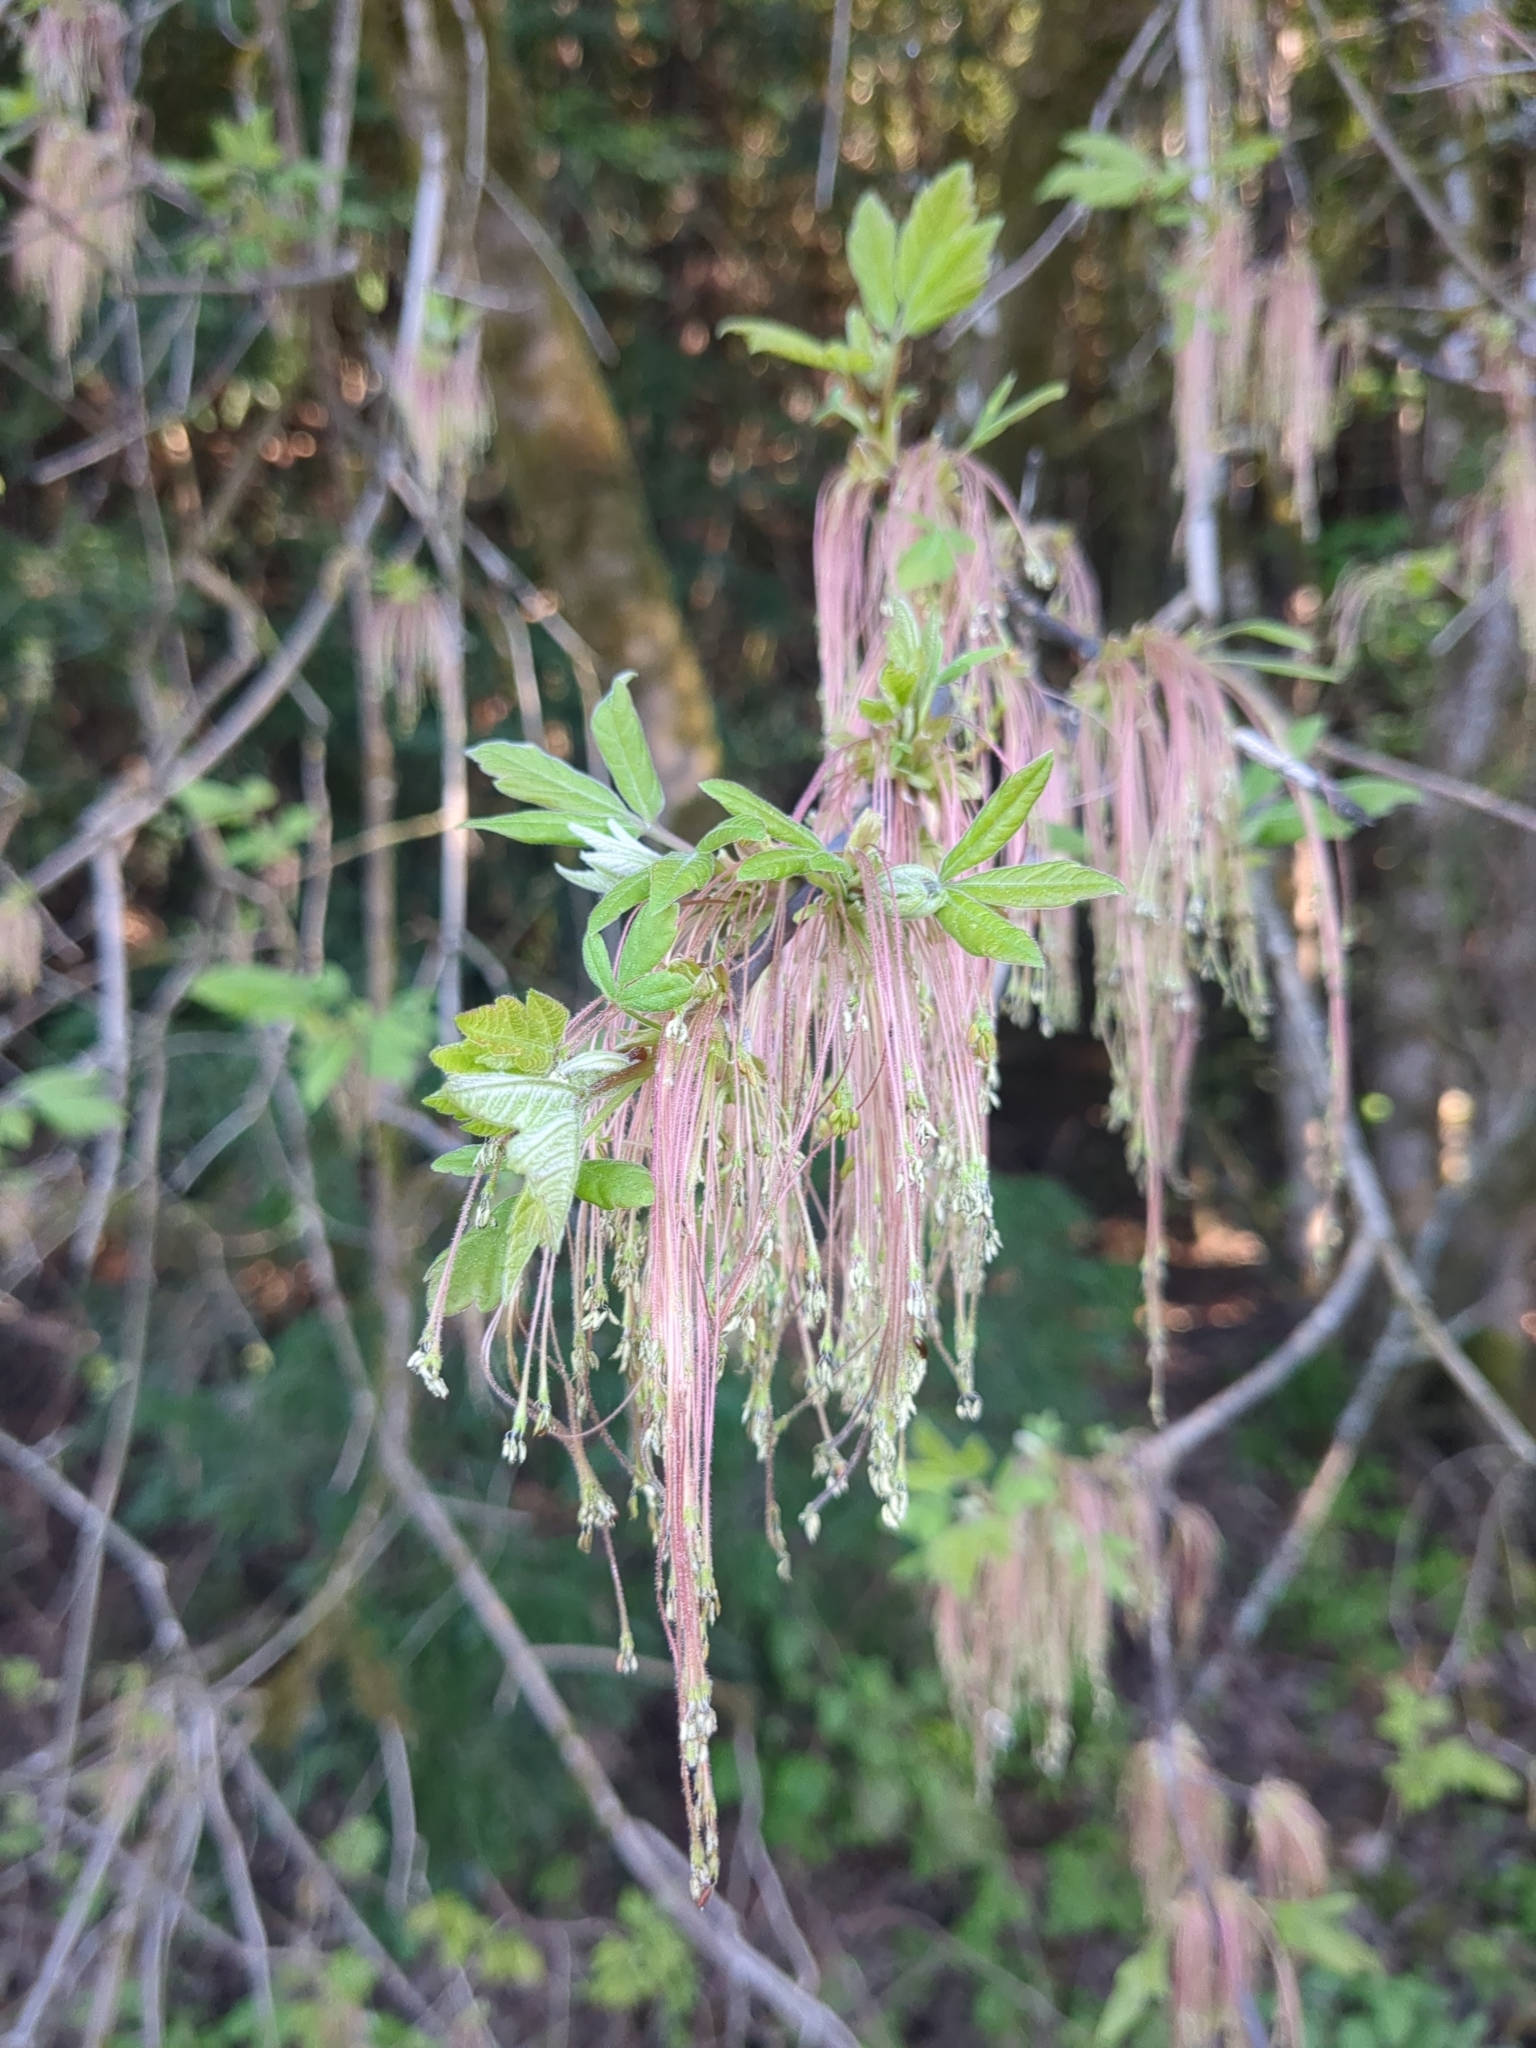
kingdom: Plantae
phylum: Tracheophyta
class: Magnoliopsida
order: Sapindales
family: Sapindaceae
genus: Acer
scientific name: Acer negundo
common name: Ashleaf maple
